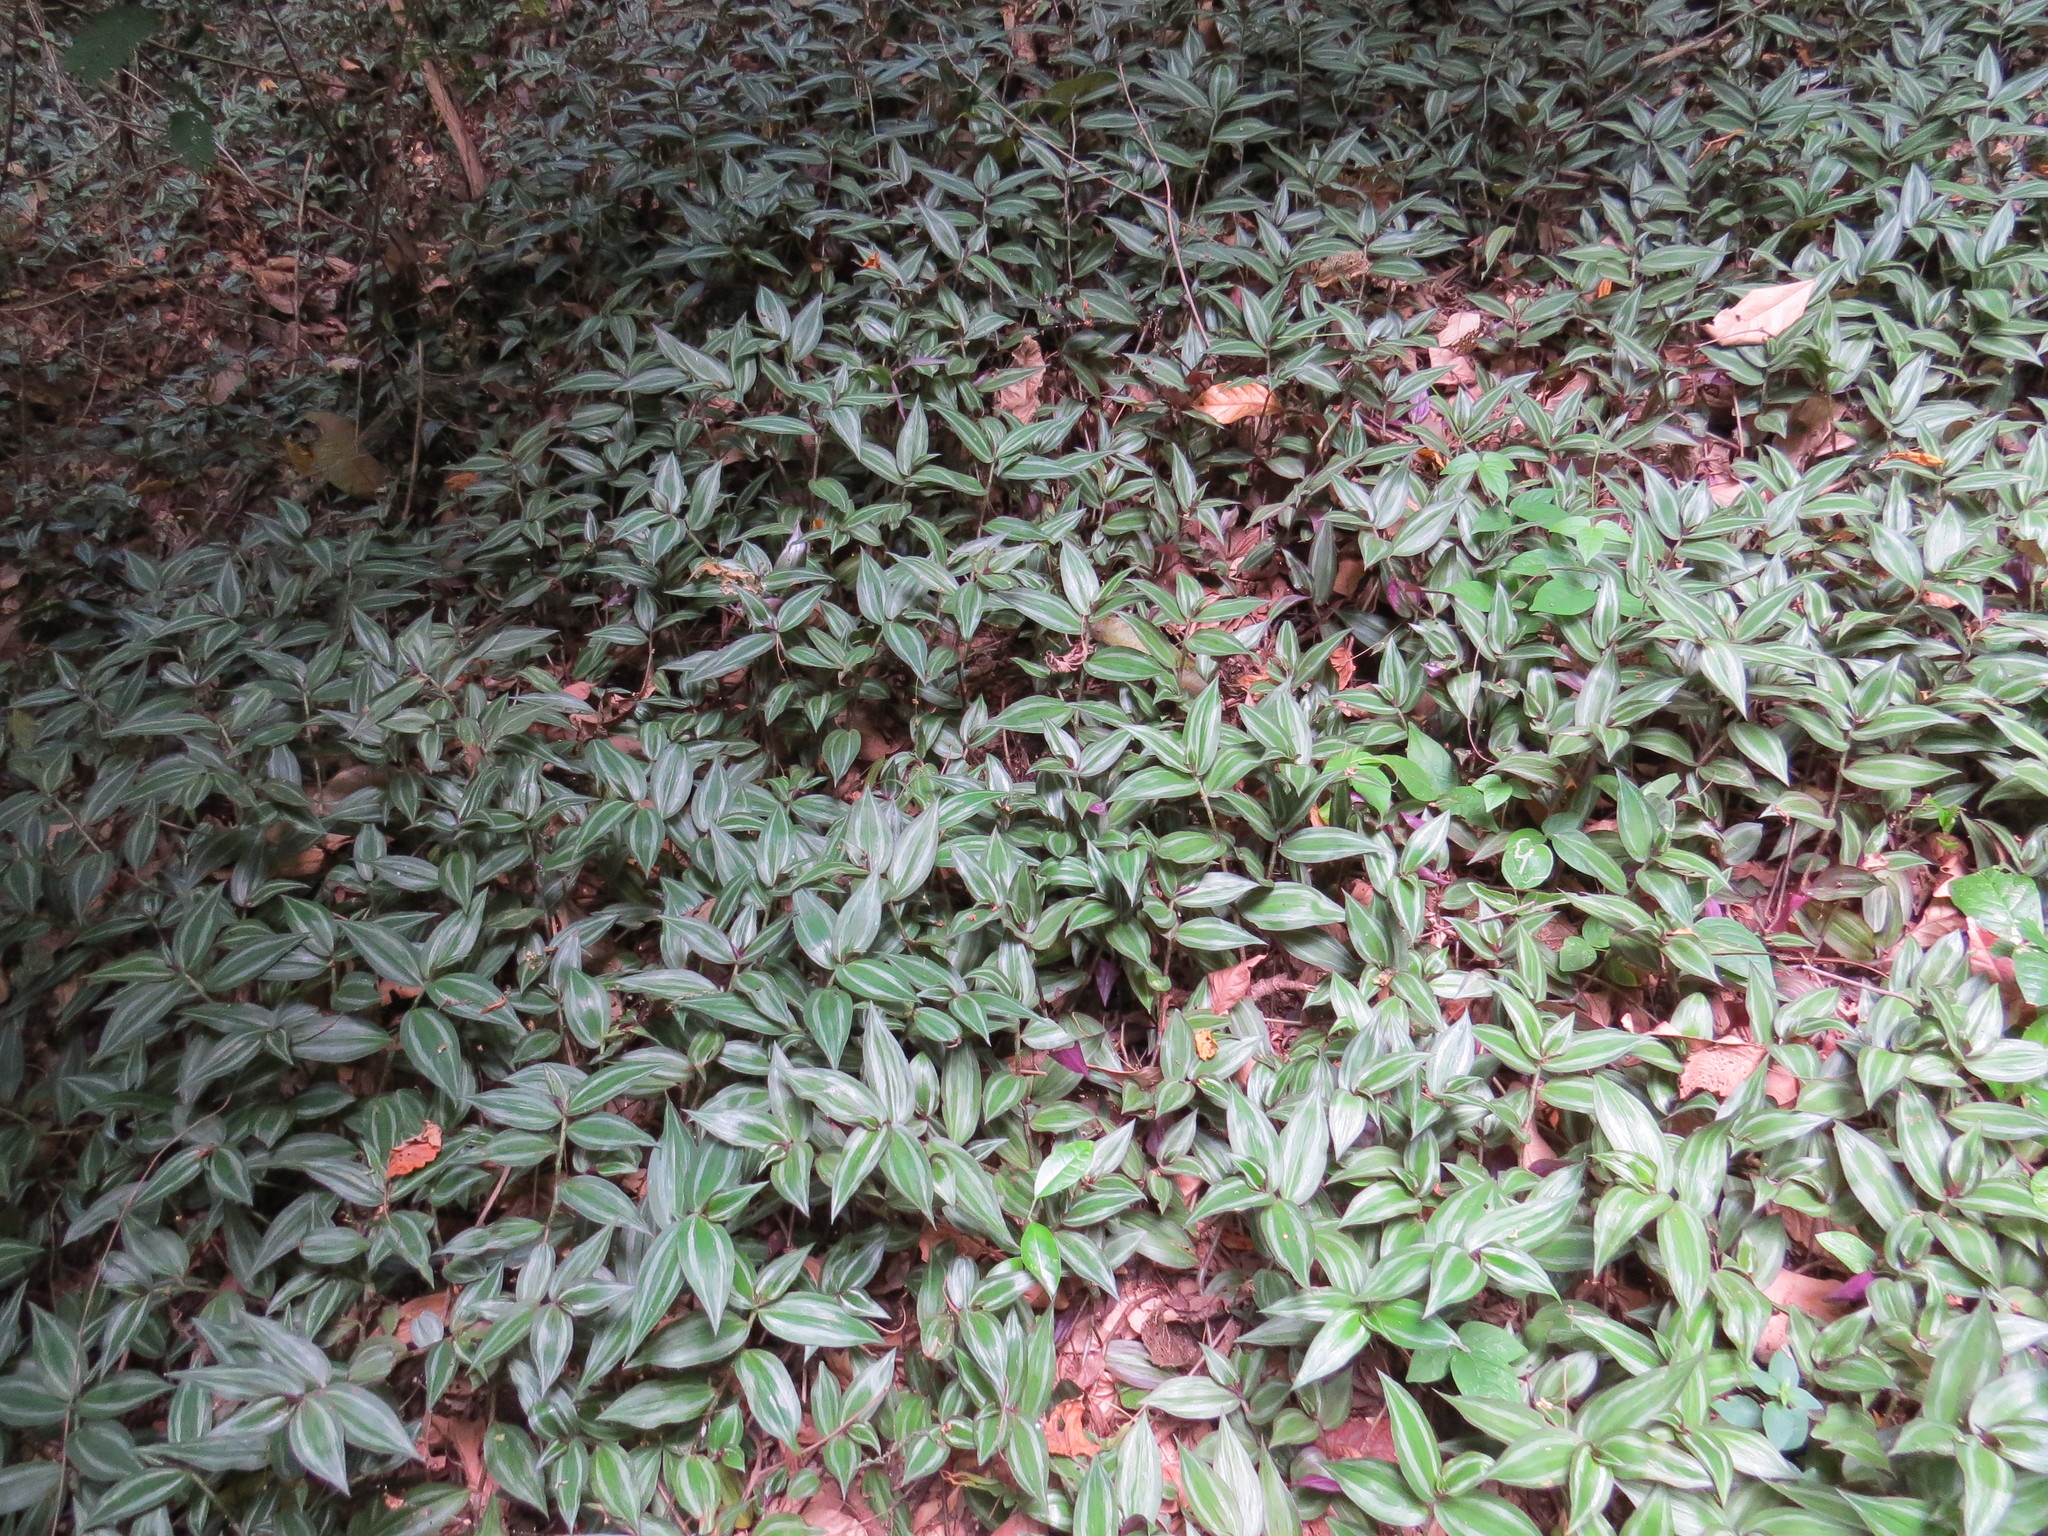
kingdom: Plantae
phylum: Tracheophyta
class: Liliopsida
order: Commelinales
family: Commelinaceae
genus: Tradescantia
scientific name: Tradescantia zebrina
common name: Inchplant
